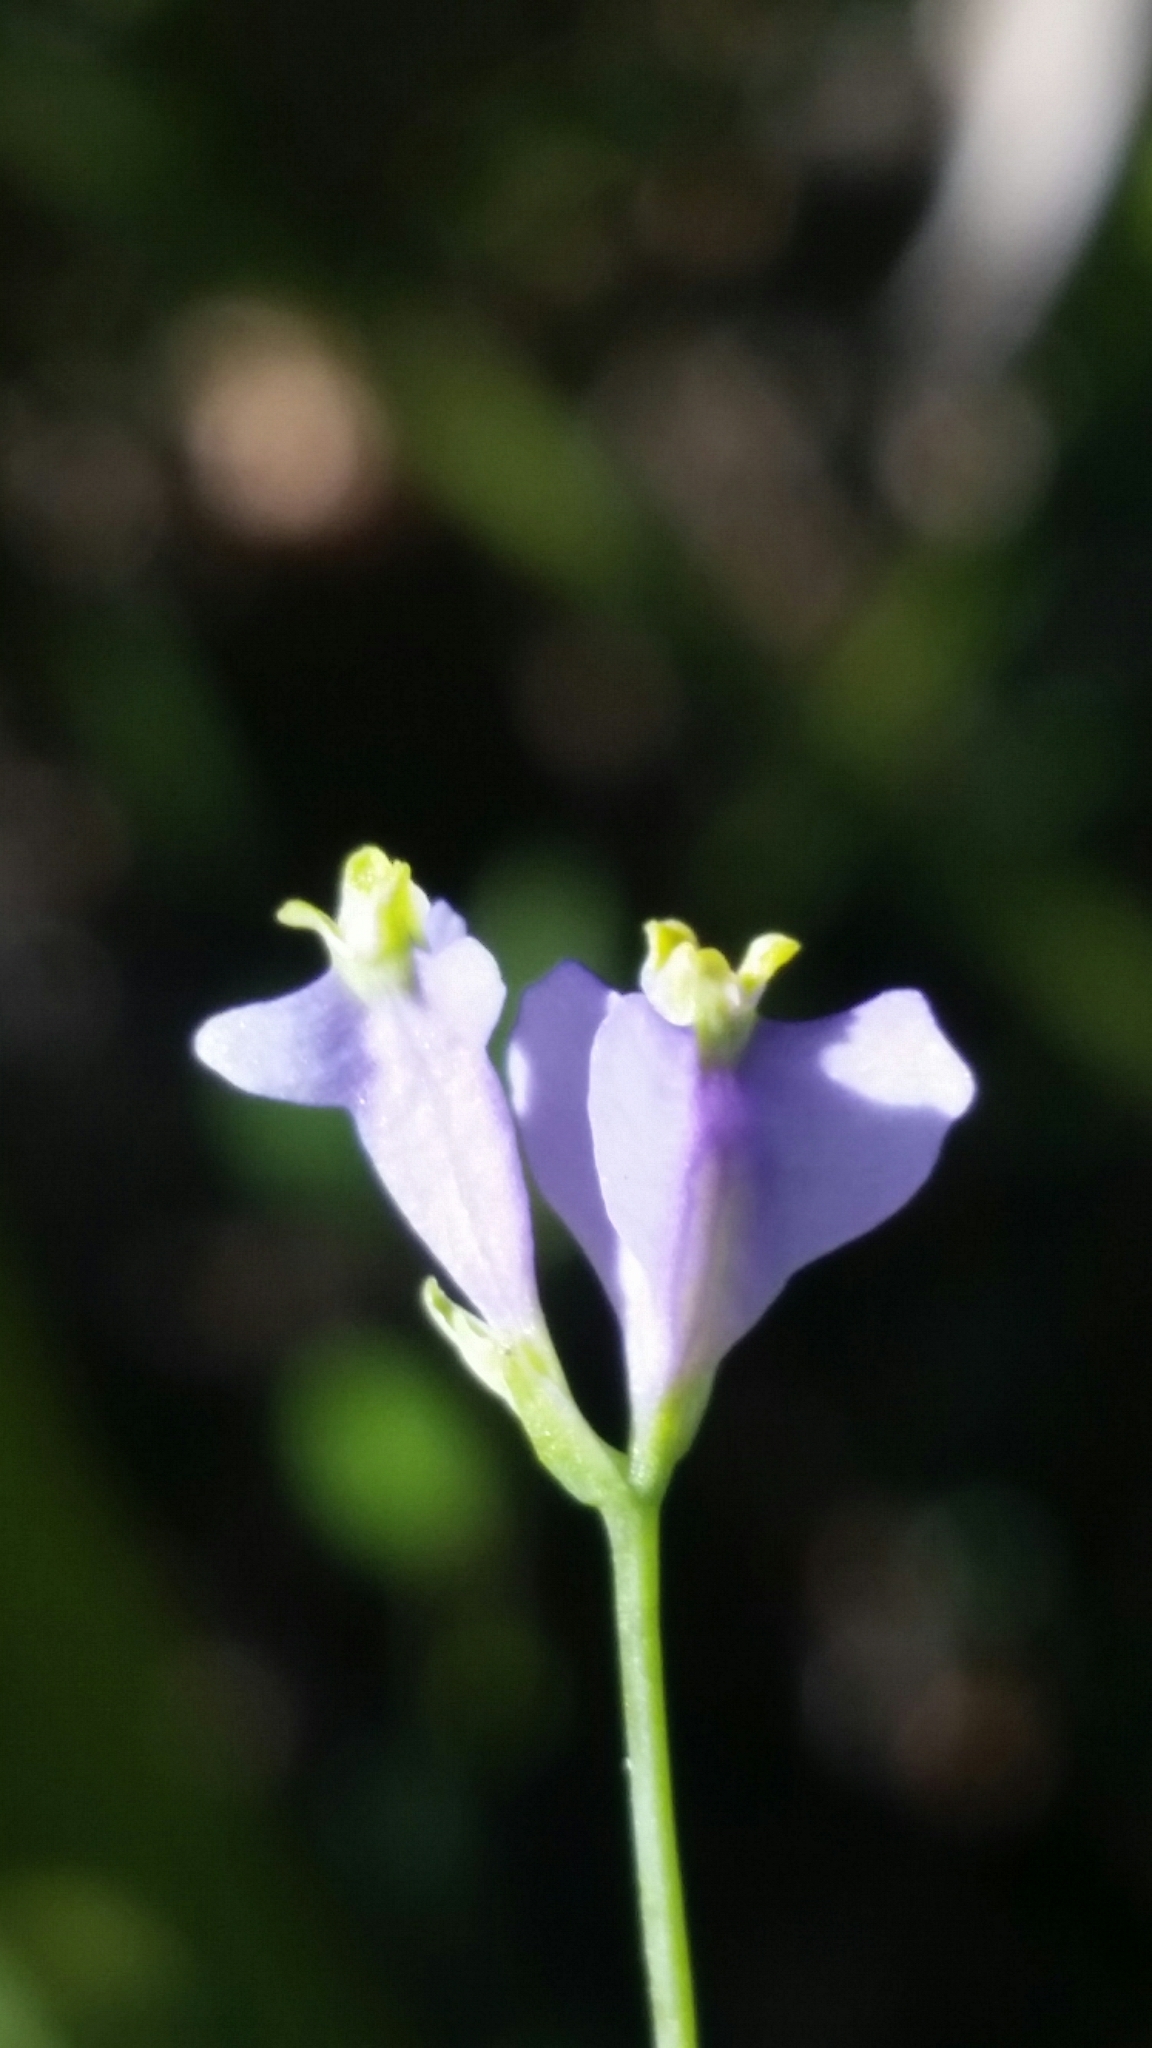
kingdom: Plantae
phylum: Tracheophyta
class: Liliopsida
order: Dioscoreales
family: Burmanniaceae
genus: Burmannia
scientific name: Burmannia biflora
